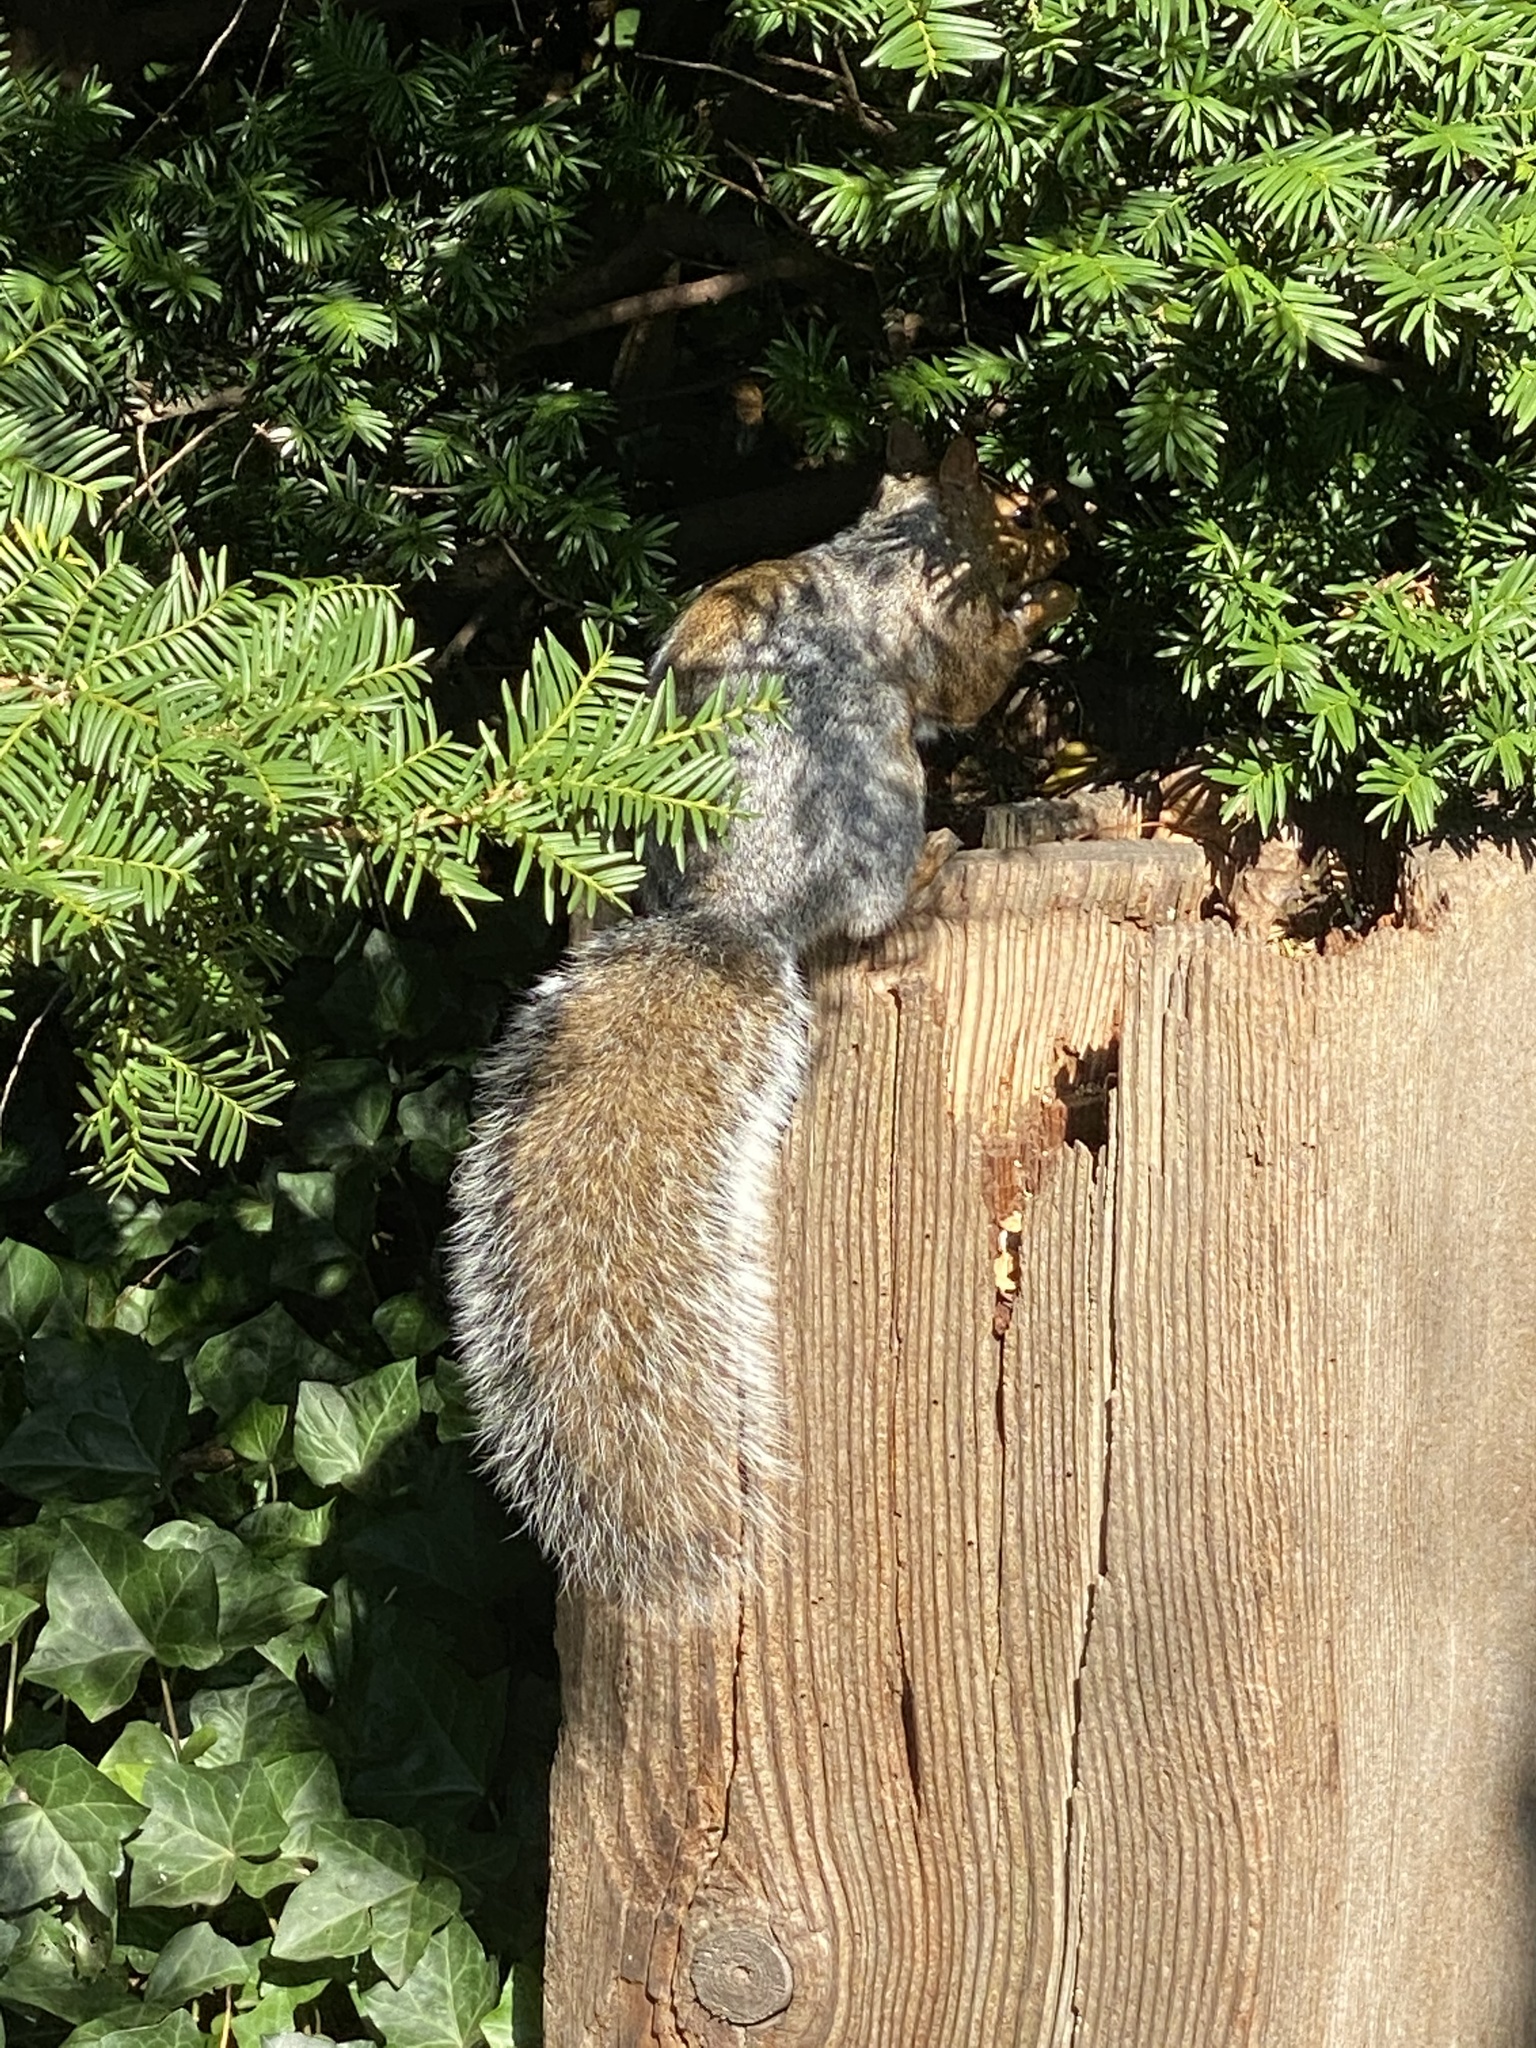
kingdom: Animalia
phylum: Chordata
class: Mammalia
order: Rodentia
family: Sciuridae
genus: Sciurus
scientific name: Sciurus carolinensis
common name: Eastern gray squirrel
